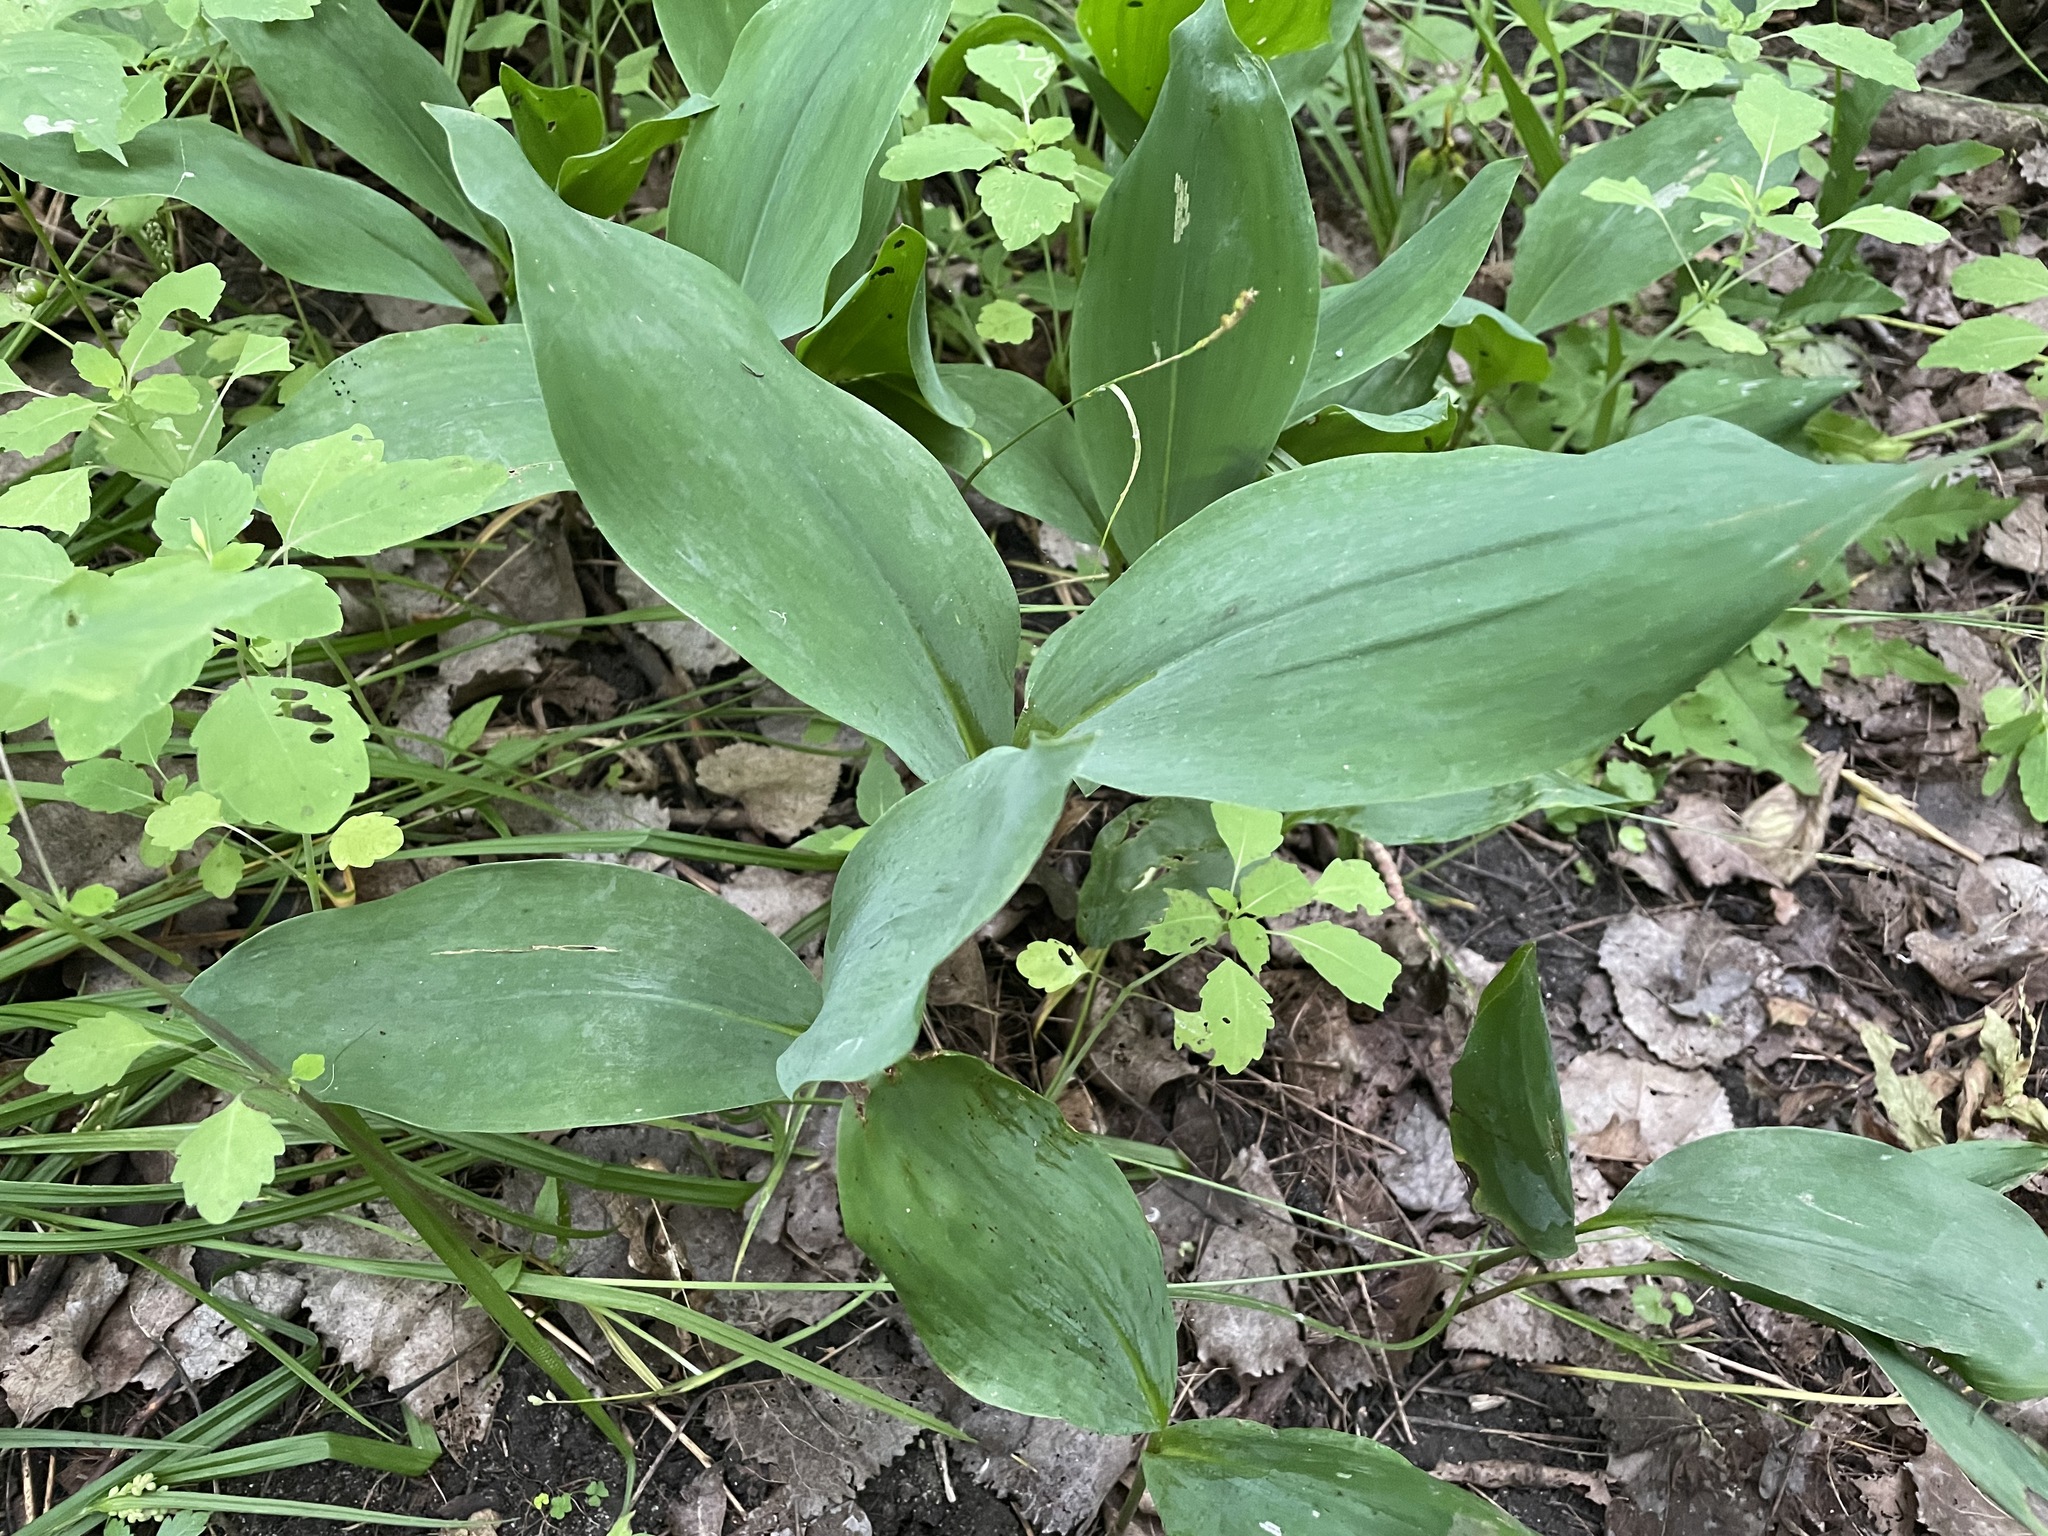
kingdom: Plantae
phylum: Tracheophyta
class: Liliopsida
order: Asparagales
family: Asparagaceae
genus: Convallaria
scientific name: Convallaria majalis
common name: Lily-of-the-valley
